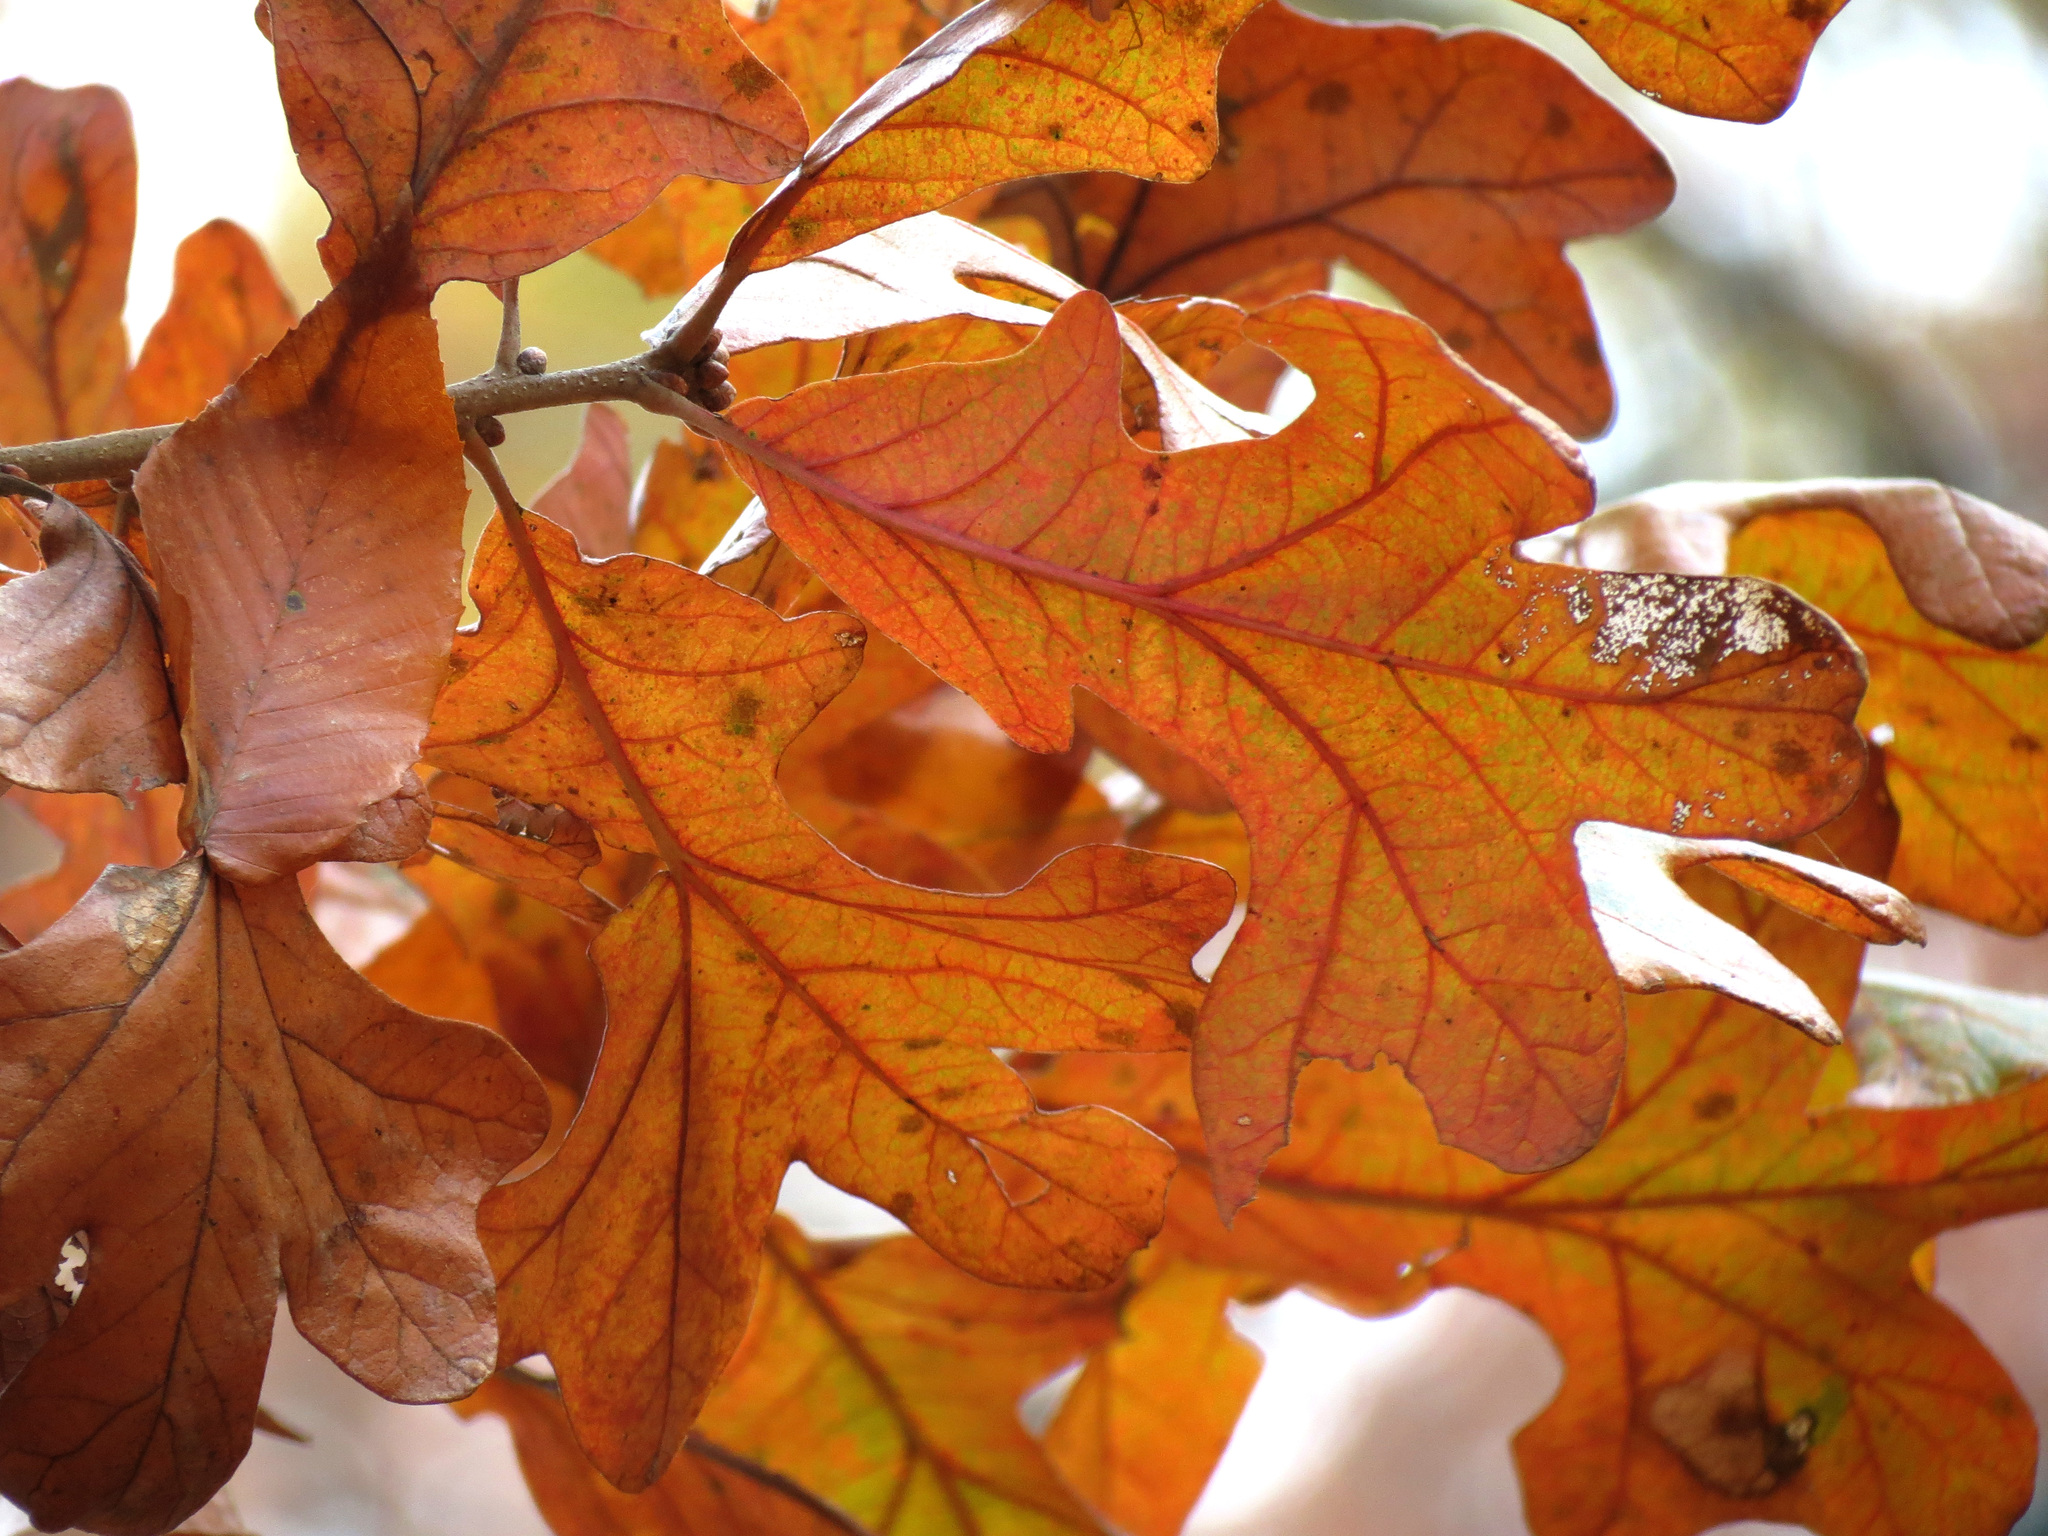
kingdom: Plantae
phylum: Tracheophyta
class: Magnoliopsida
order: Fagales
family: Fagaceae
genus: Quercus
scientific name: Quercus stellata
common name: Post oak
